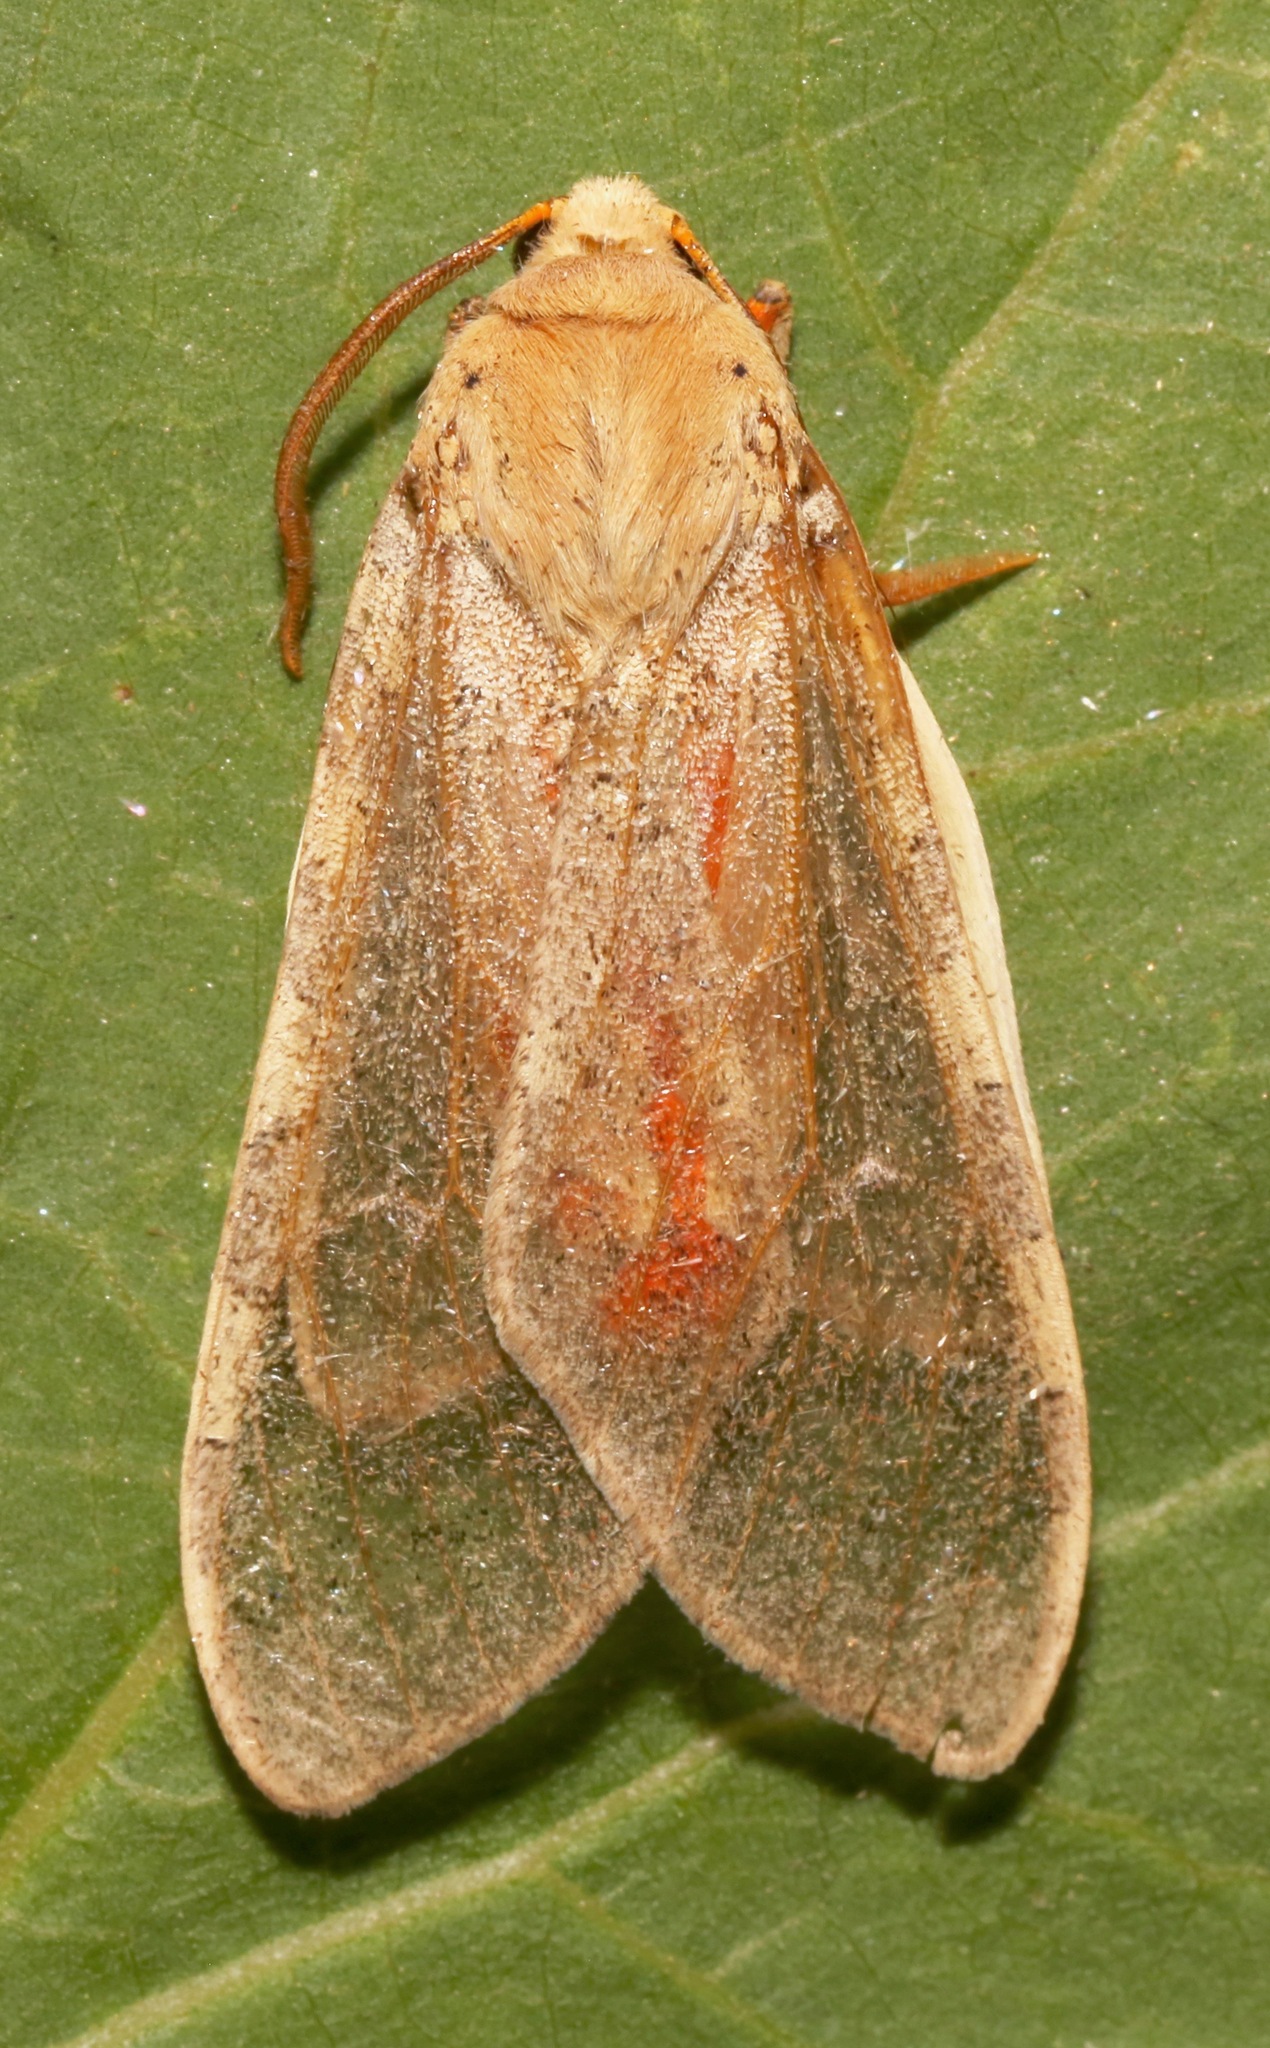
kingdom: Animalia
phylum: Arthropoda
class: Insecta
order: Lepidoptera
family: Erebidae
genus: Hemihyalea
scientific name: Hemihyalea edwardsii
